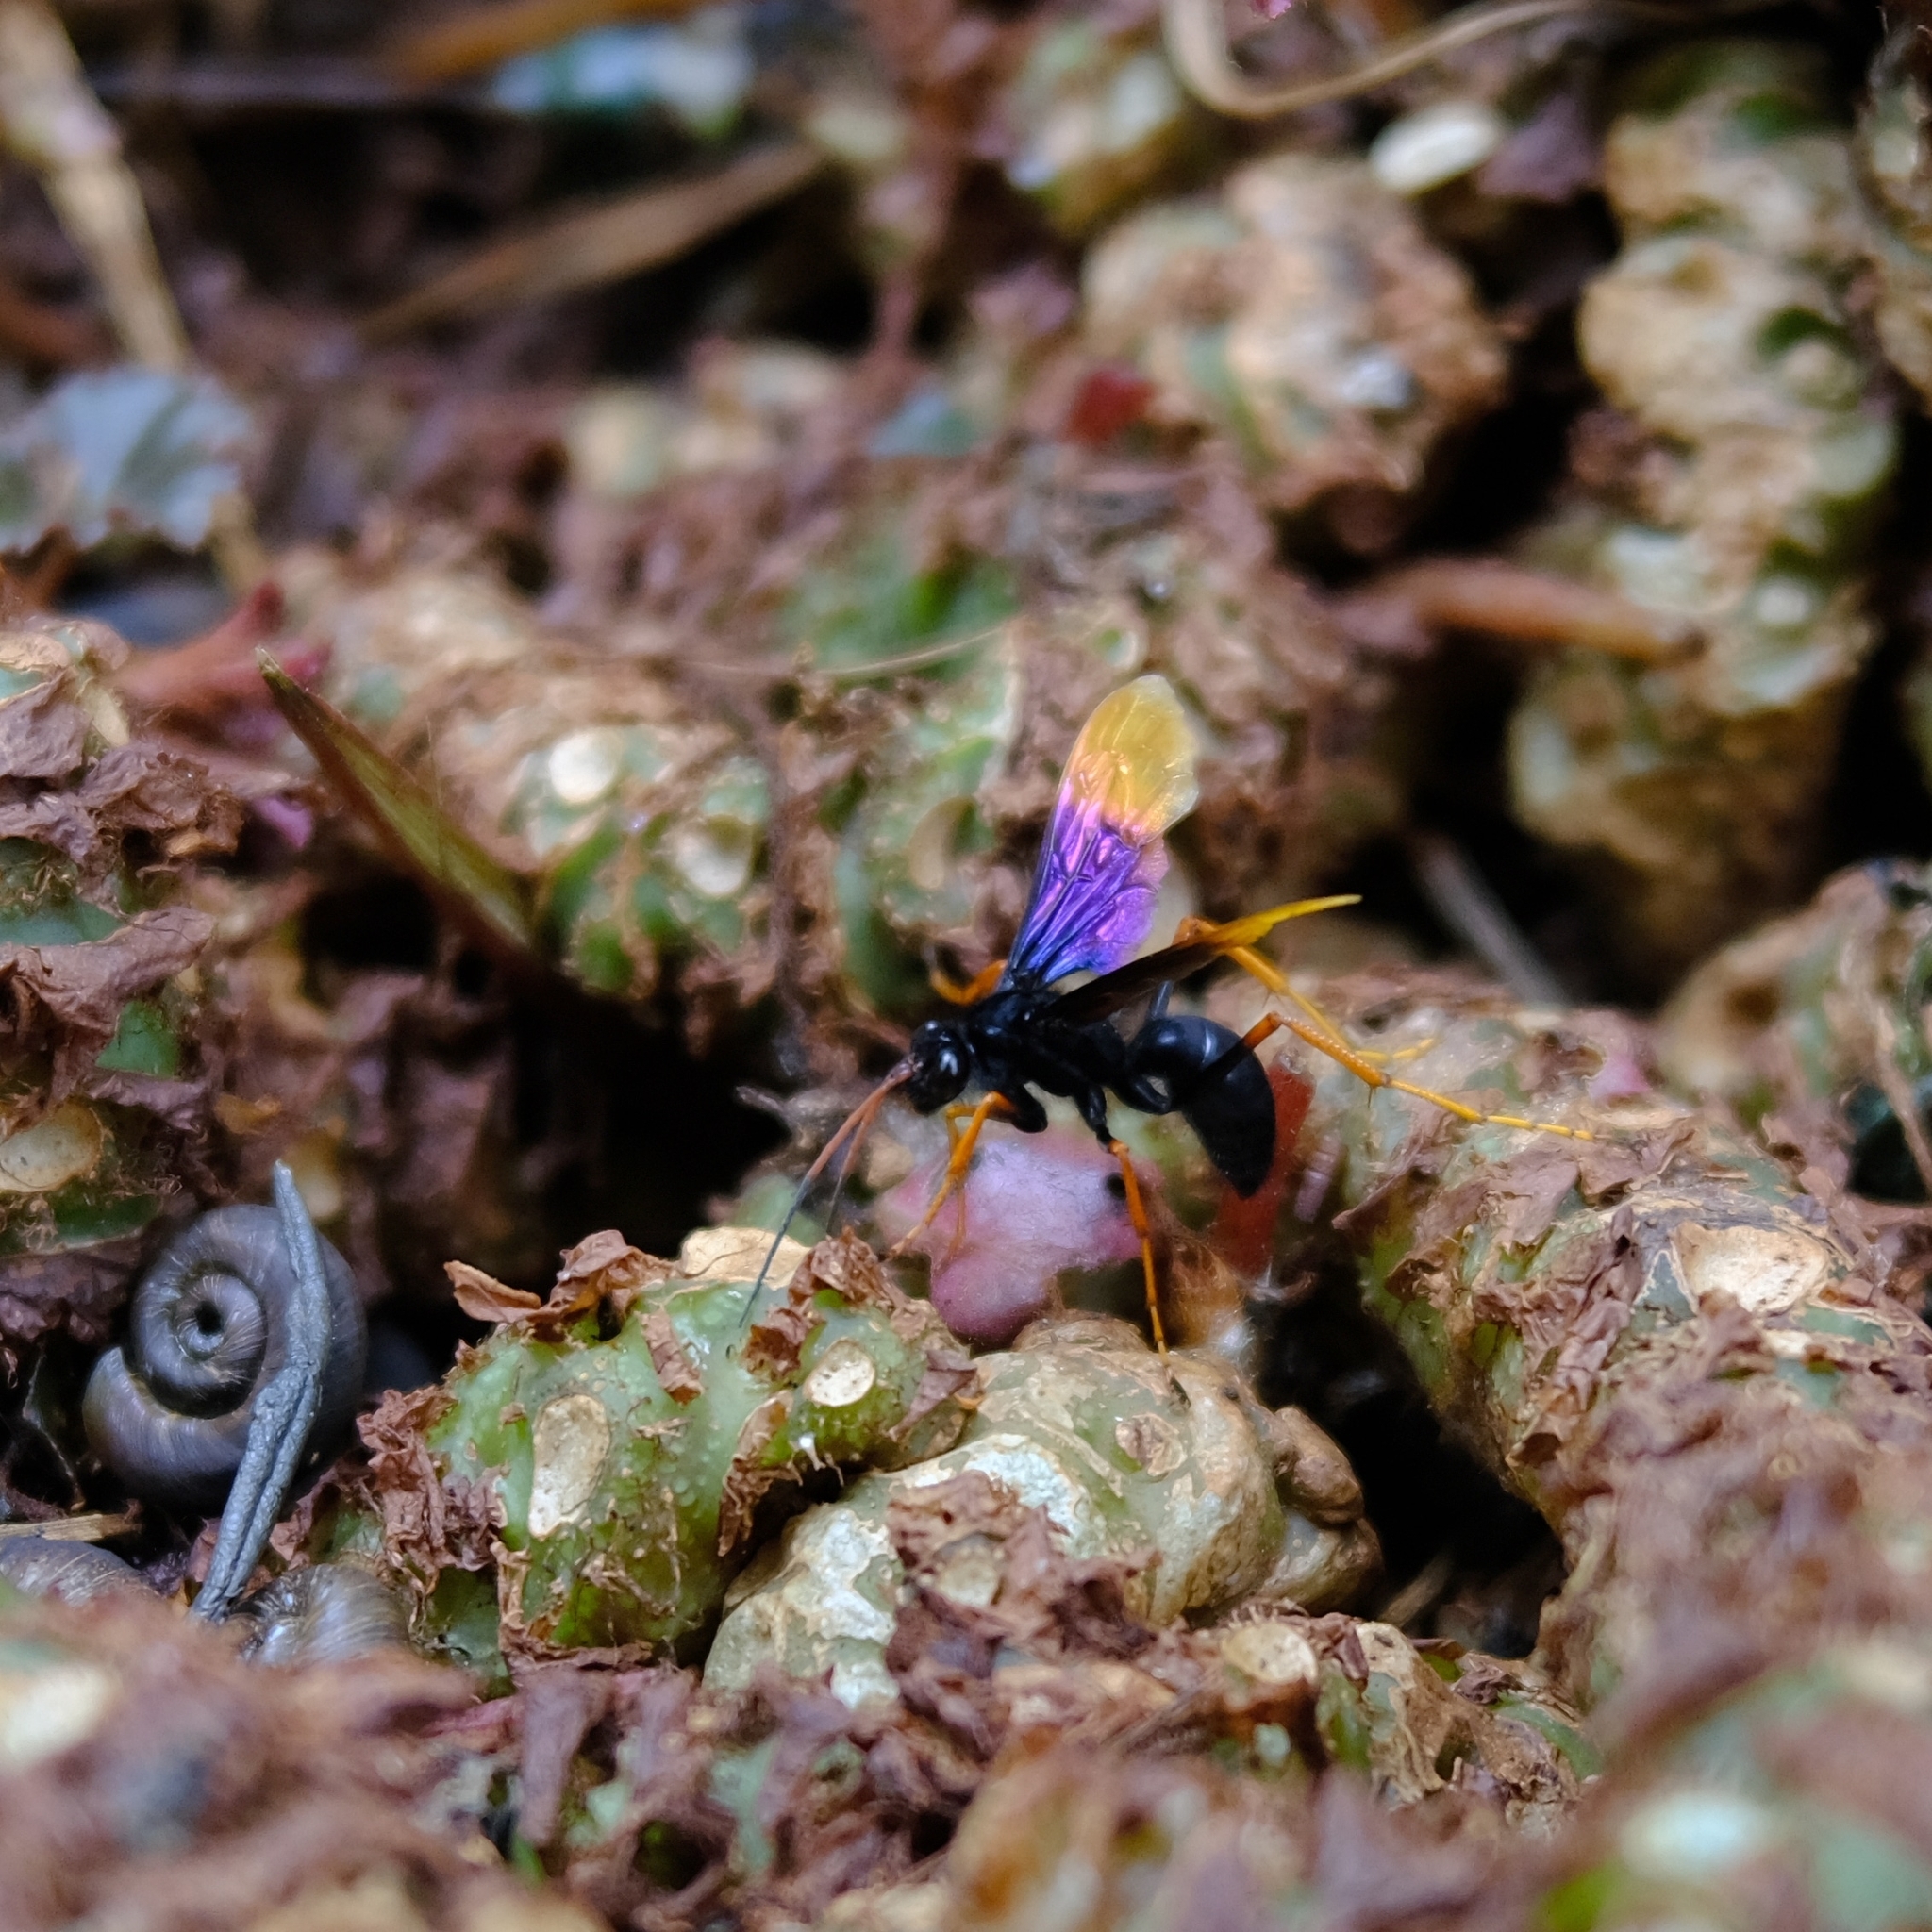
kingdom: Animalia
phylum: Arthropoda
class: Insecta
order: Hymenoptera
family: Pompilidae
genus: Java
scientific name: Java caroliwaterhousei
